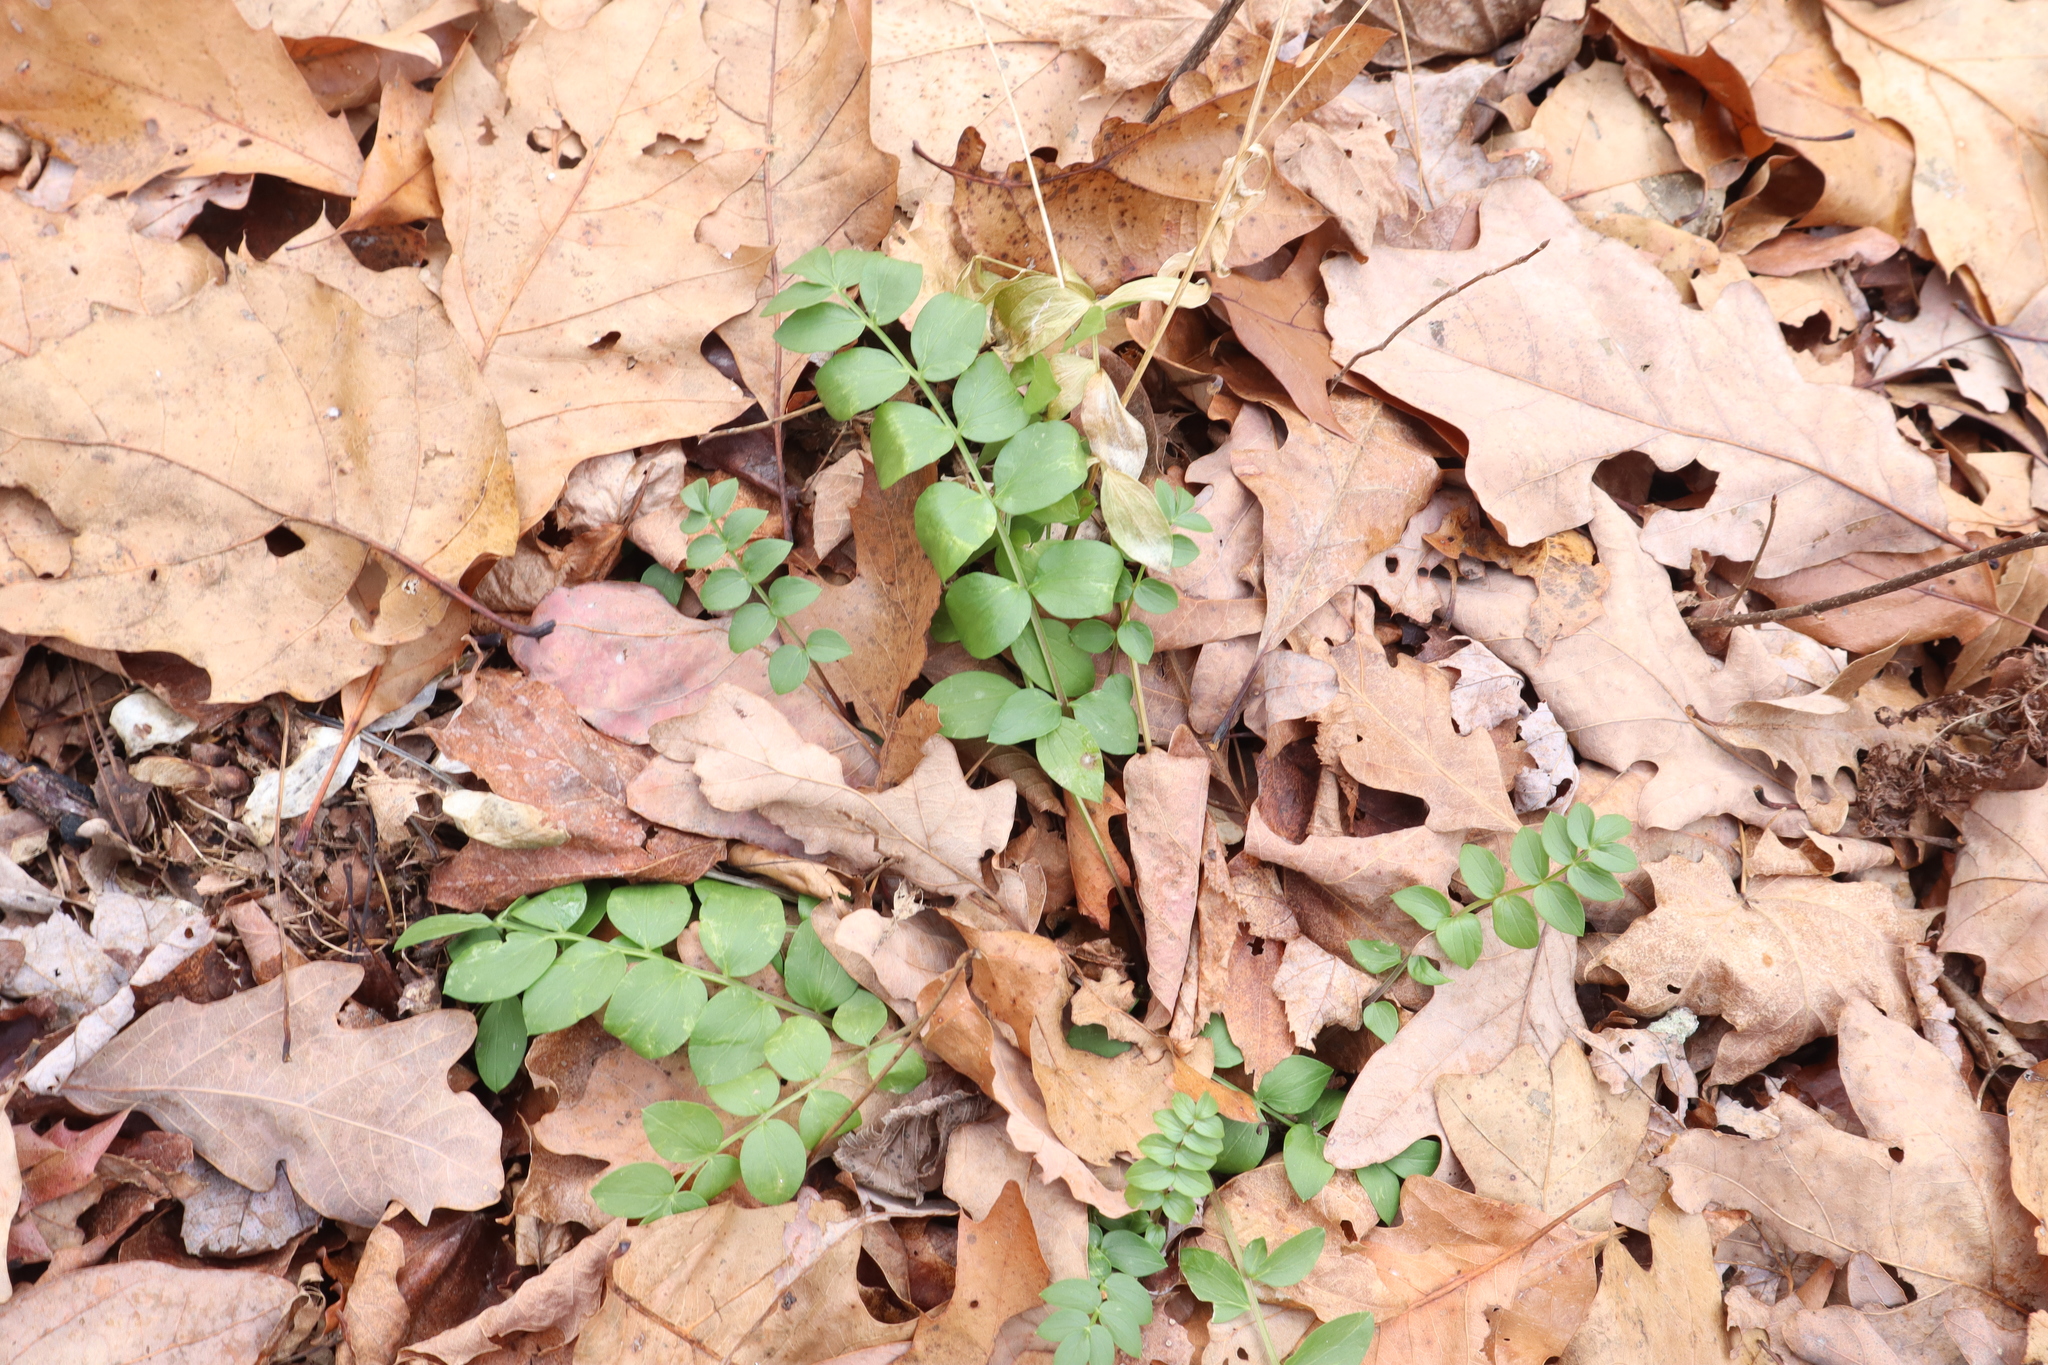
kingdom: Plantae
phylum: Tracheophyta
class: Magnoliopsida
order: Ericales
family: Polemoniaceae
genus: Polemonium
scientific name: Polemonium reptans
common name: Creeping jacob's-ladder
